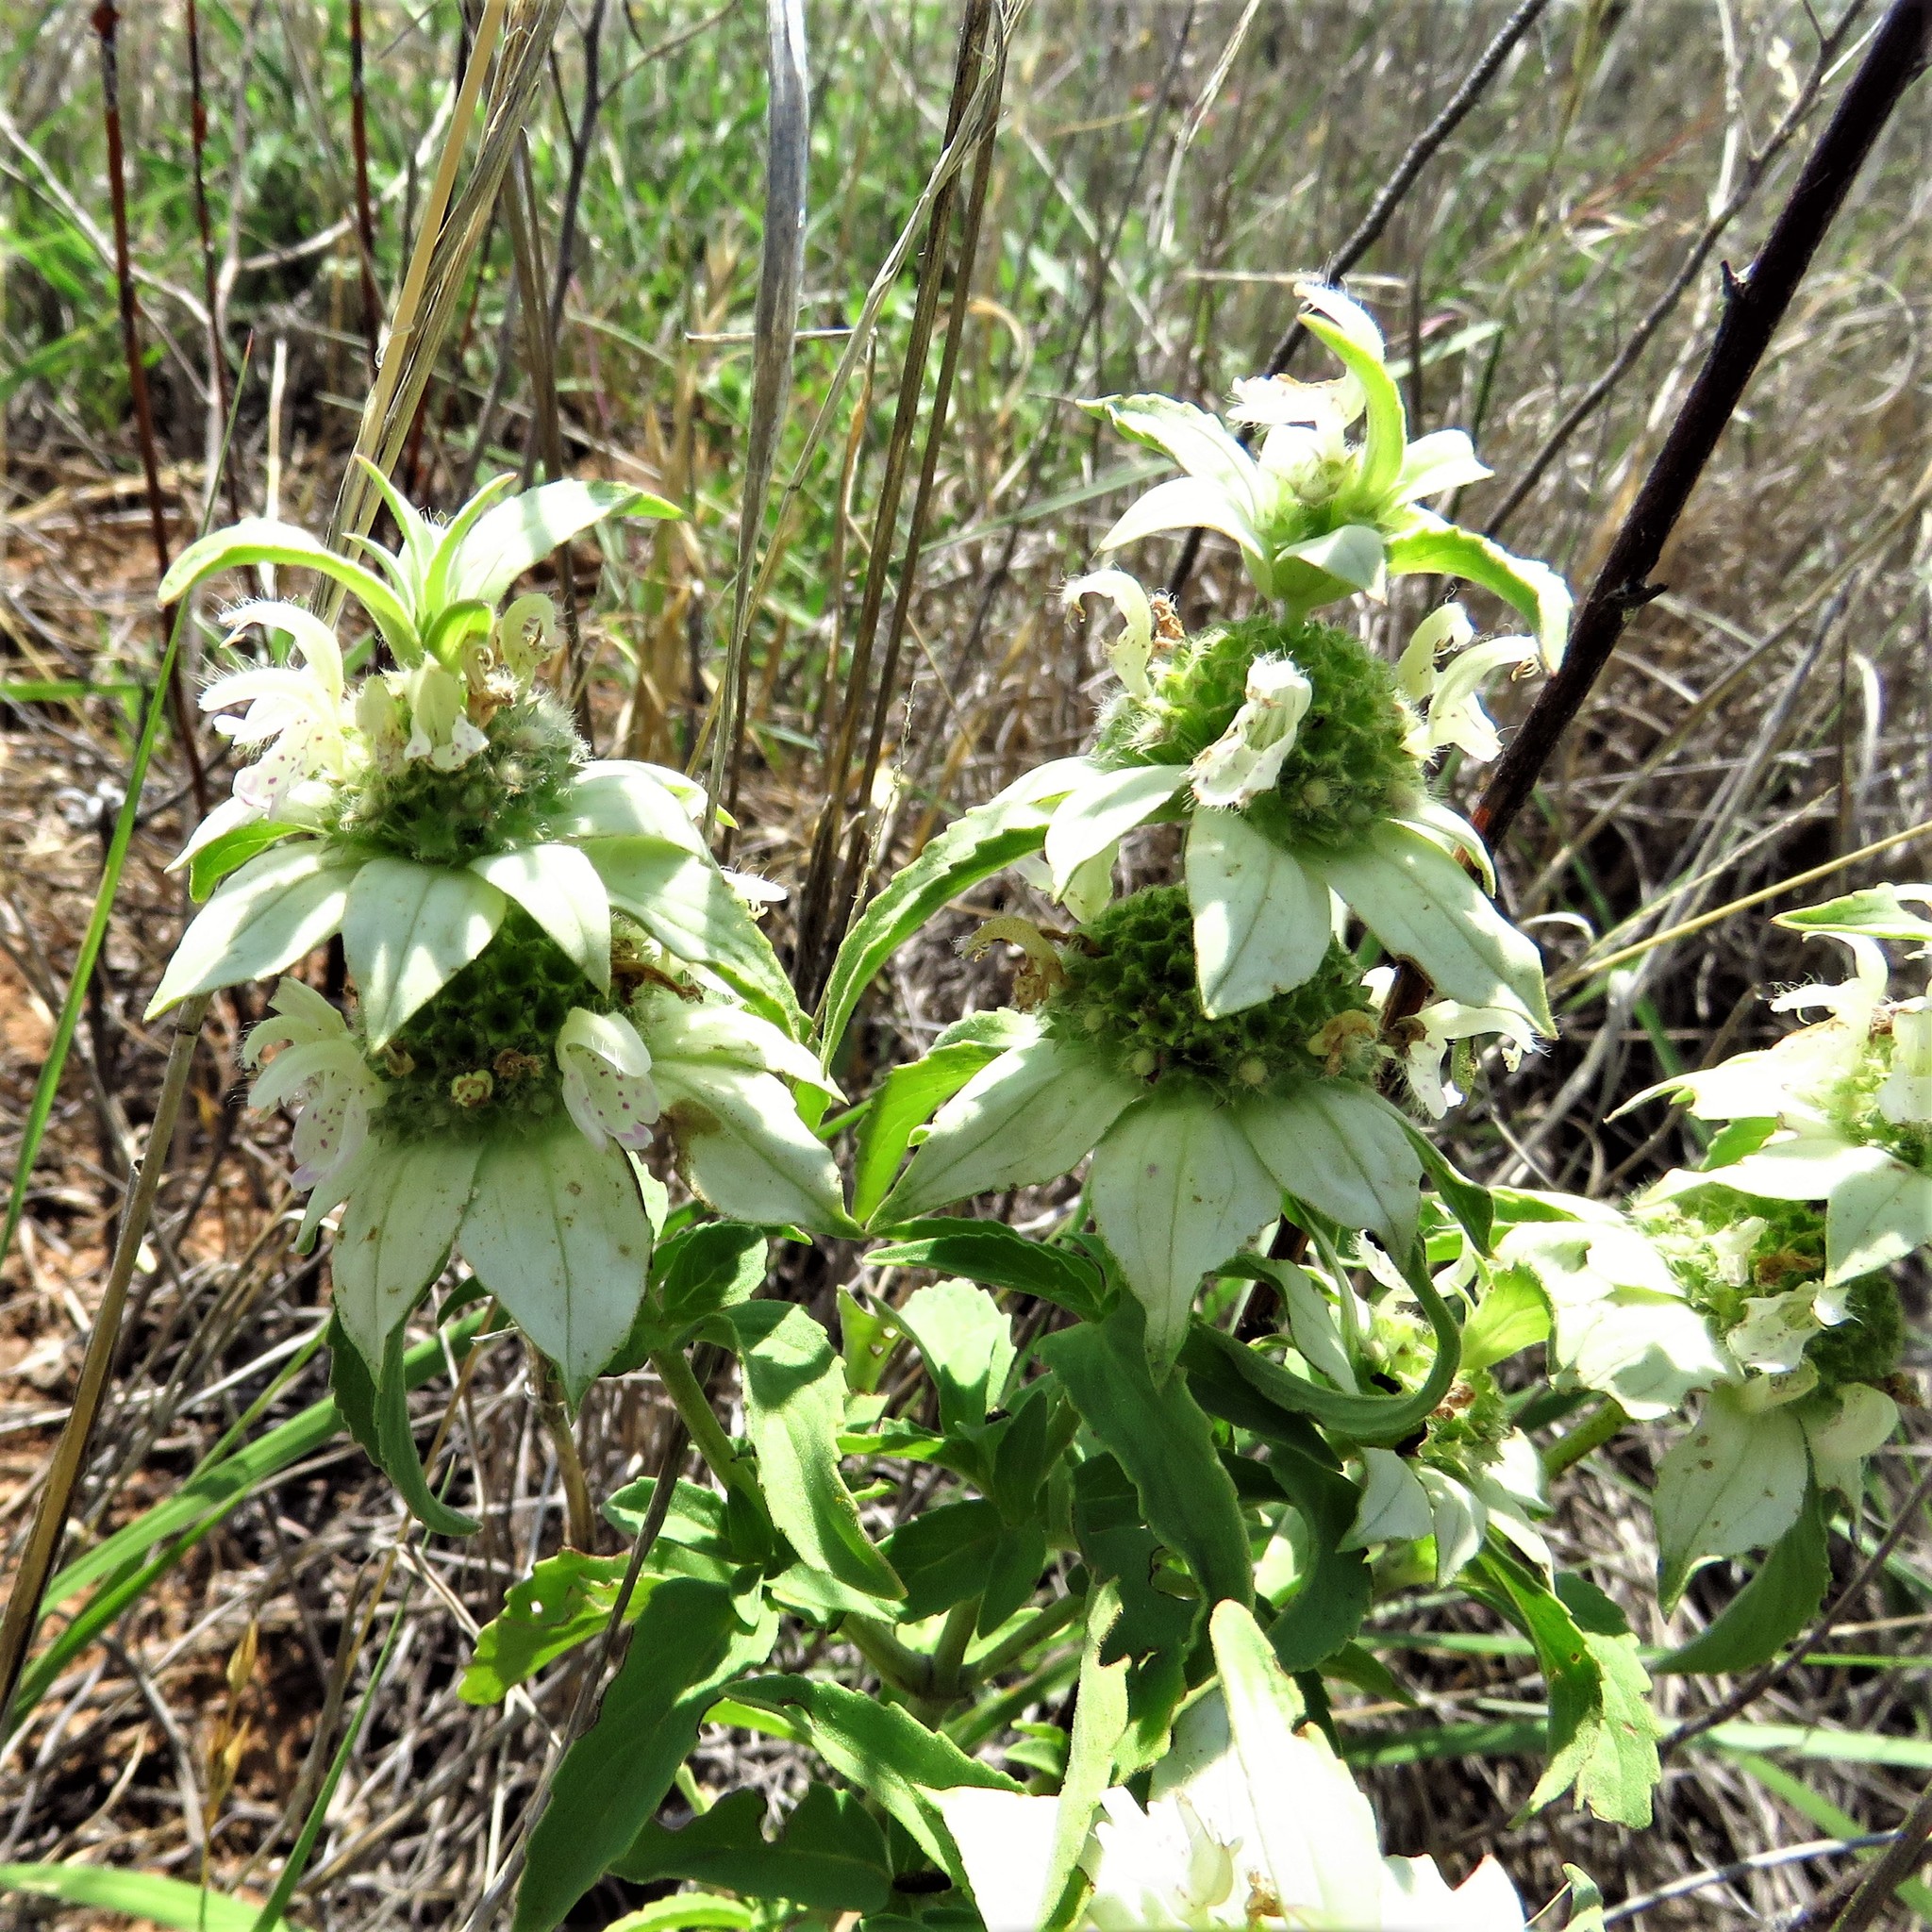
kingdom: Plantae
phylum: Tracheophyta
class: Magnoliopsida
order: Lamiales
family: Lamiaceae
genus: Monarda
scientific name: Monarda punctata
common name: Dotted monarda
